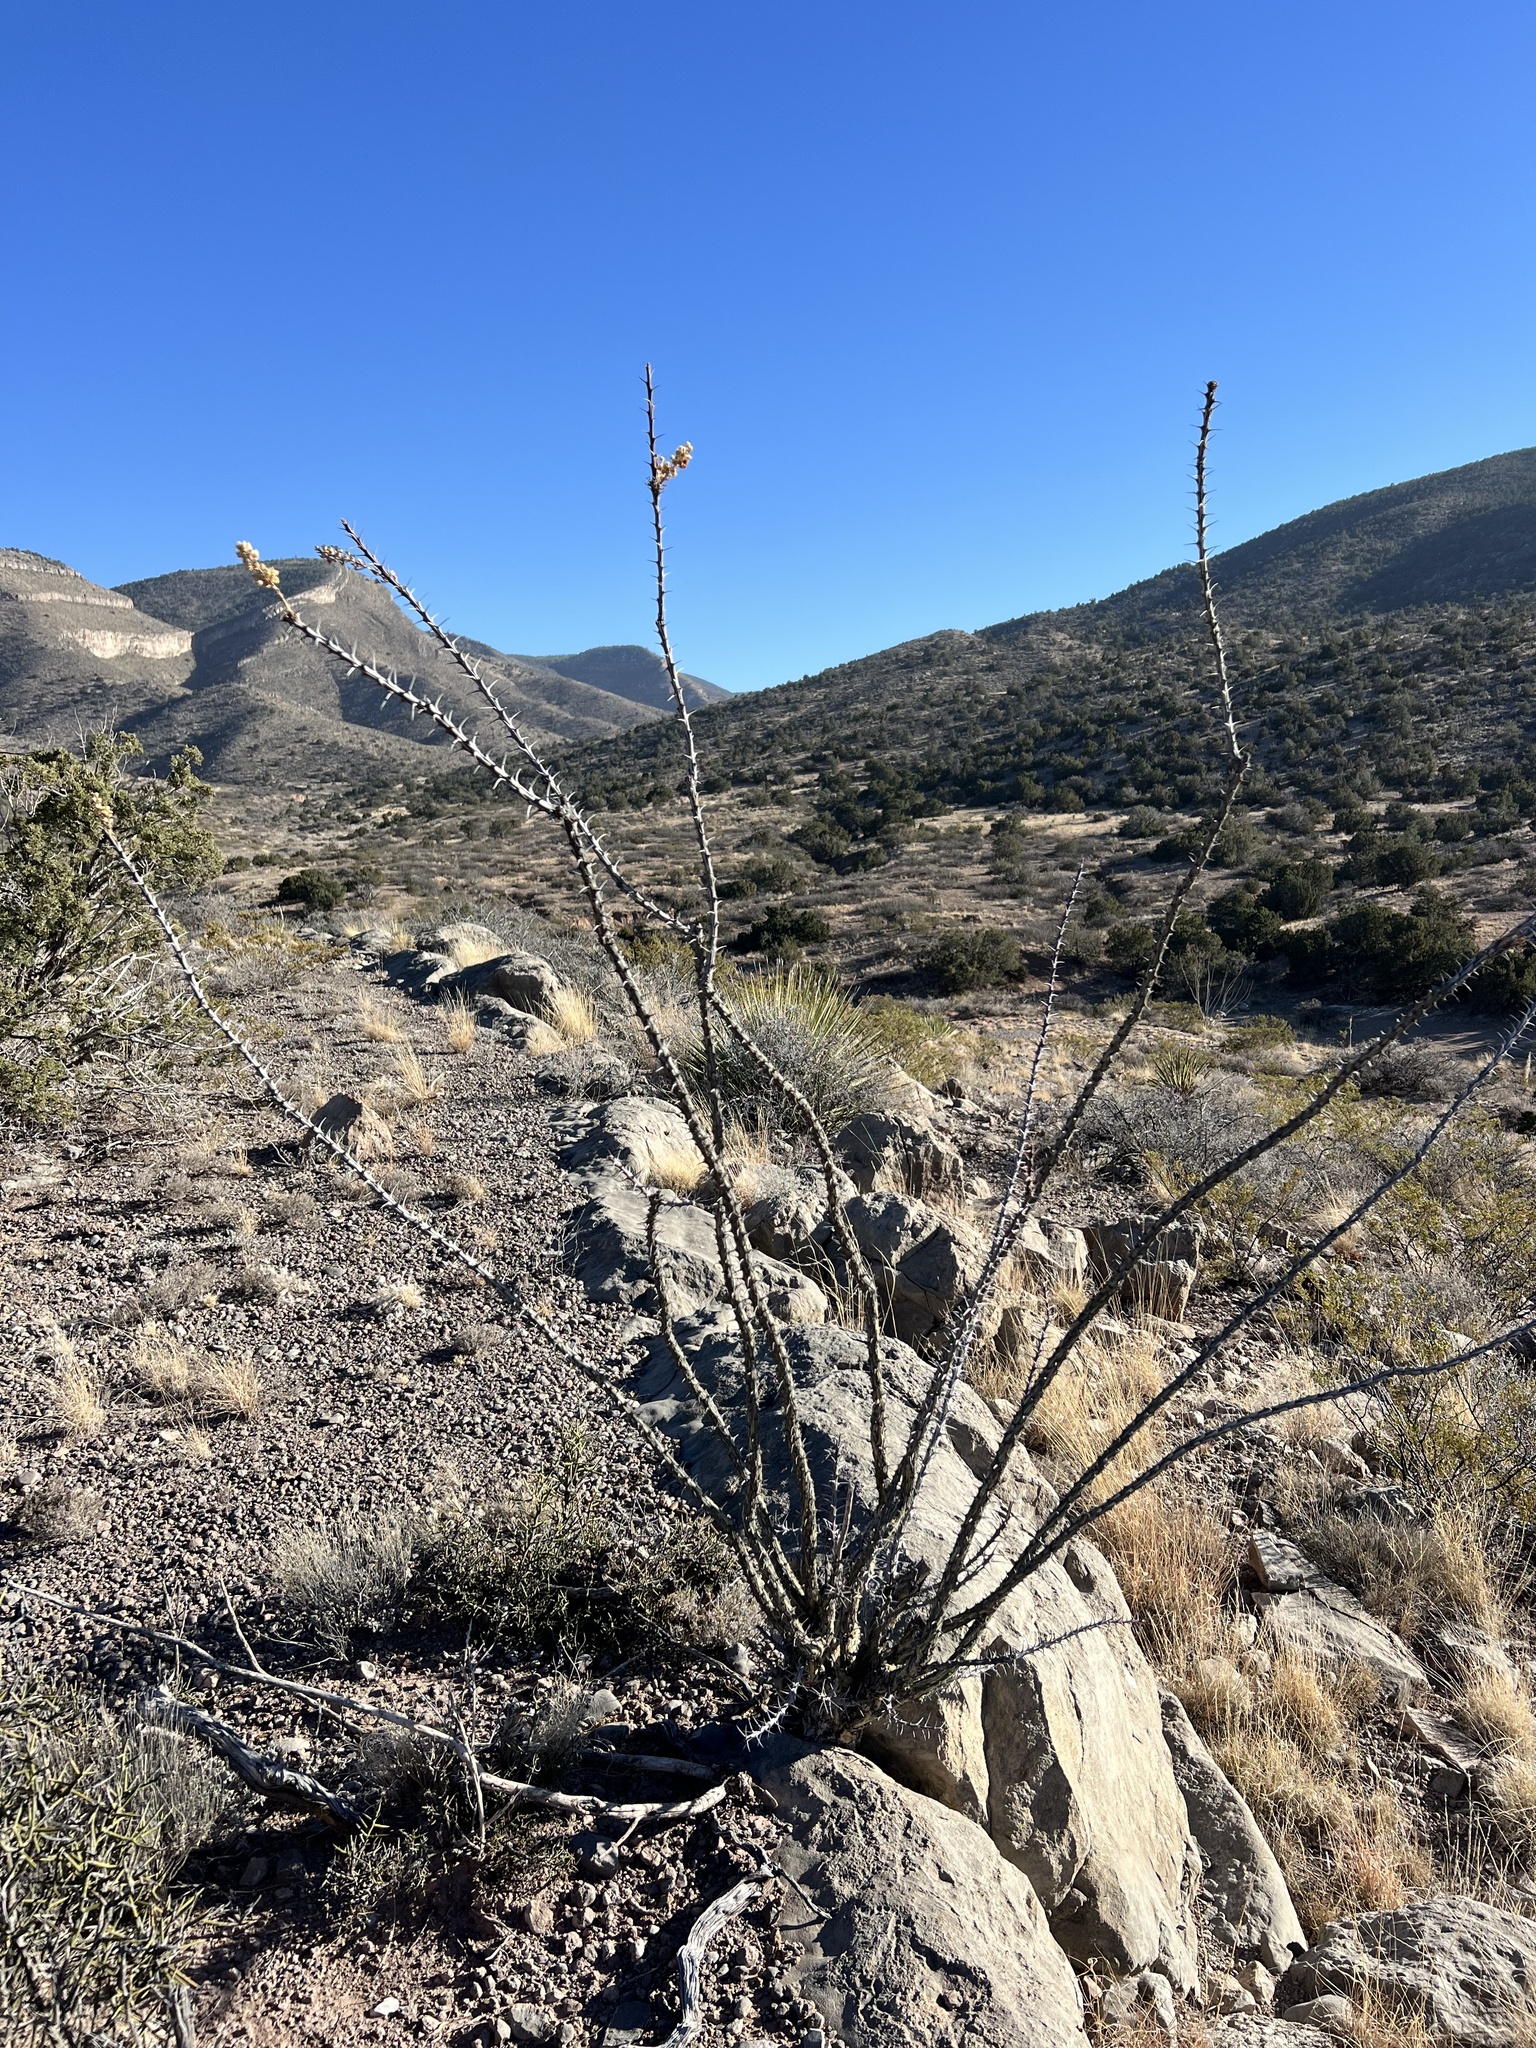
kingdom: Plantae
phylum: Tracheophyta
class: Magnoliopsida
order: Ericales
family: Fouquieriaceae
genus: Fouquieria
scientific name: Fouquieria splendens
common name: Vine-cactus
